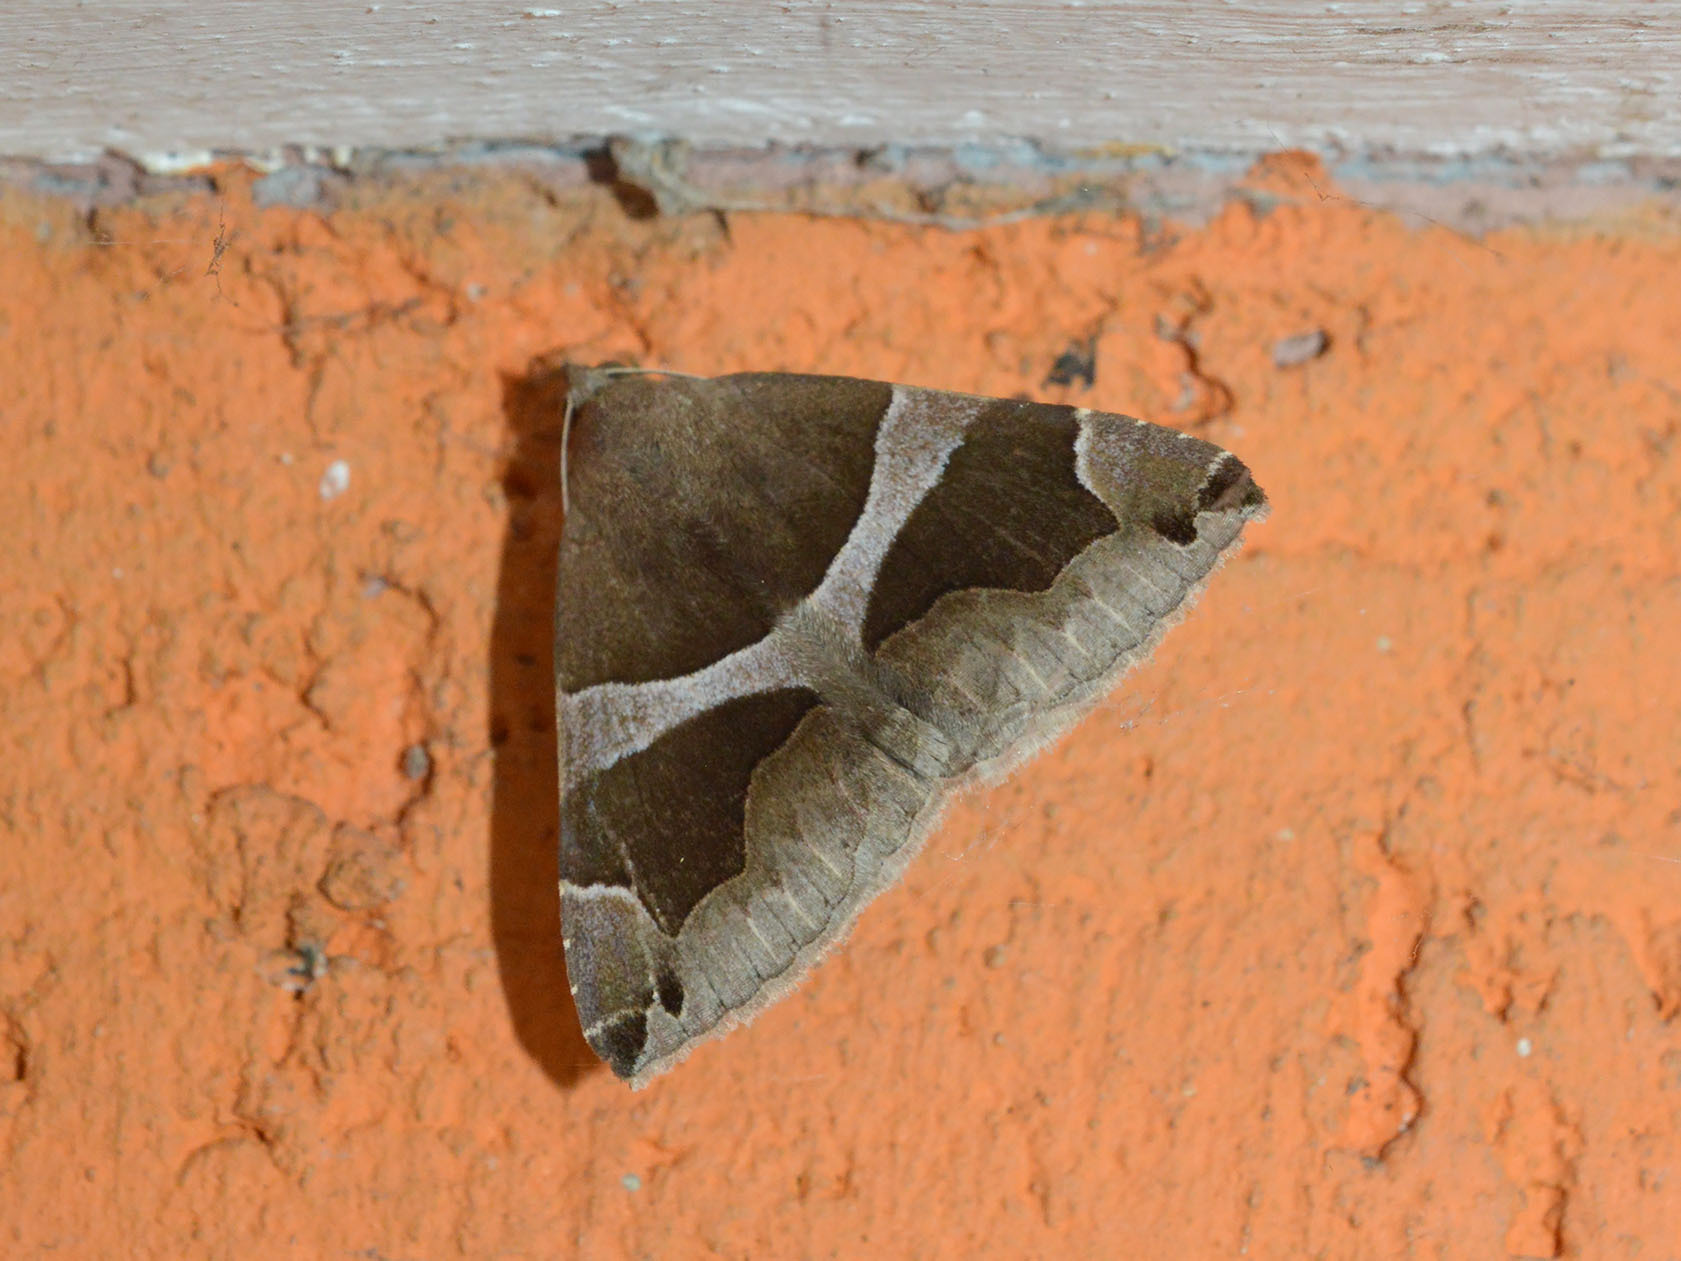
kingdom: Animalia
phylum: Arthropoda
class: Insecta
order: Lepidoptera
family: Erebidae
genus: Dysgonia
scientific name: Dysgonia algira
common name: Passenger
